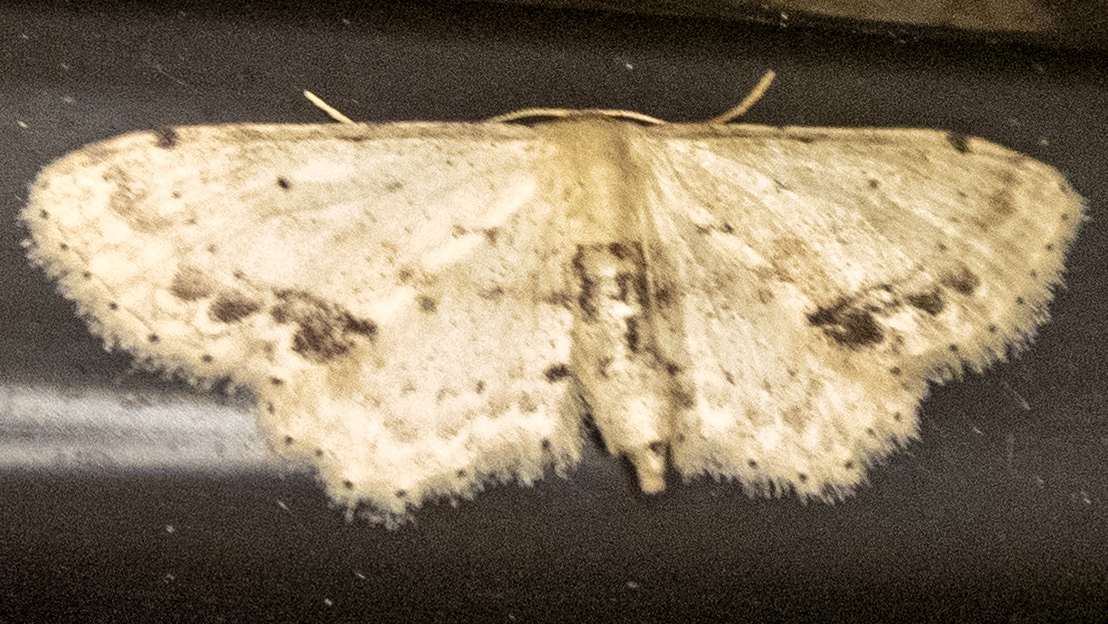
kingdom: Animalia
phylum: Arthropoda
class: Insecta
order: Lepidoptera
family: Geometridae
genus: Idaea
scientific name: Idaea dimidiata
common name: Single-dotted wave
